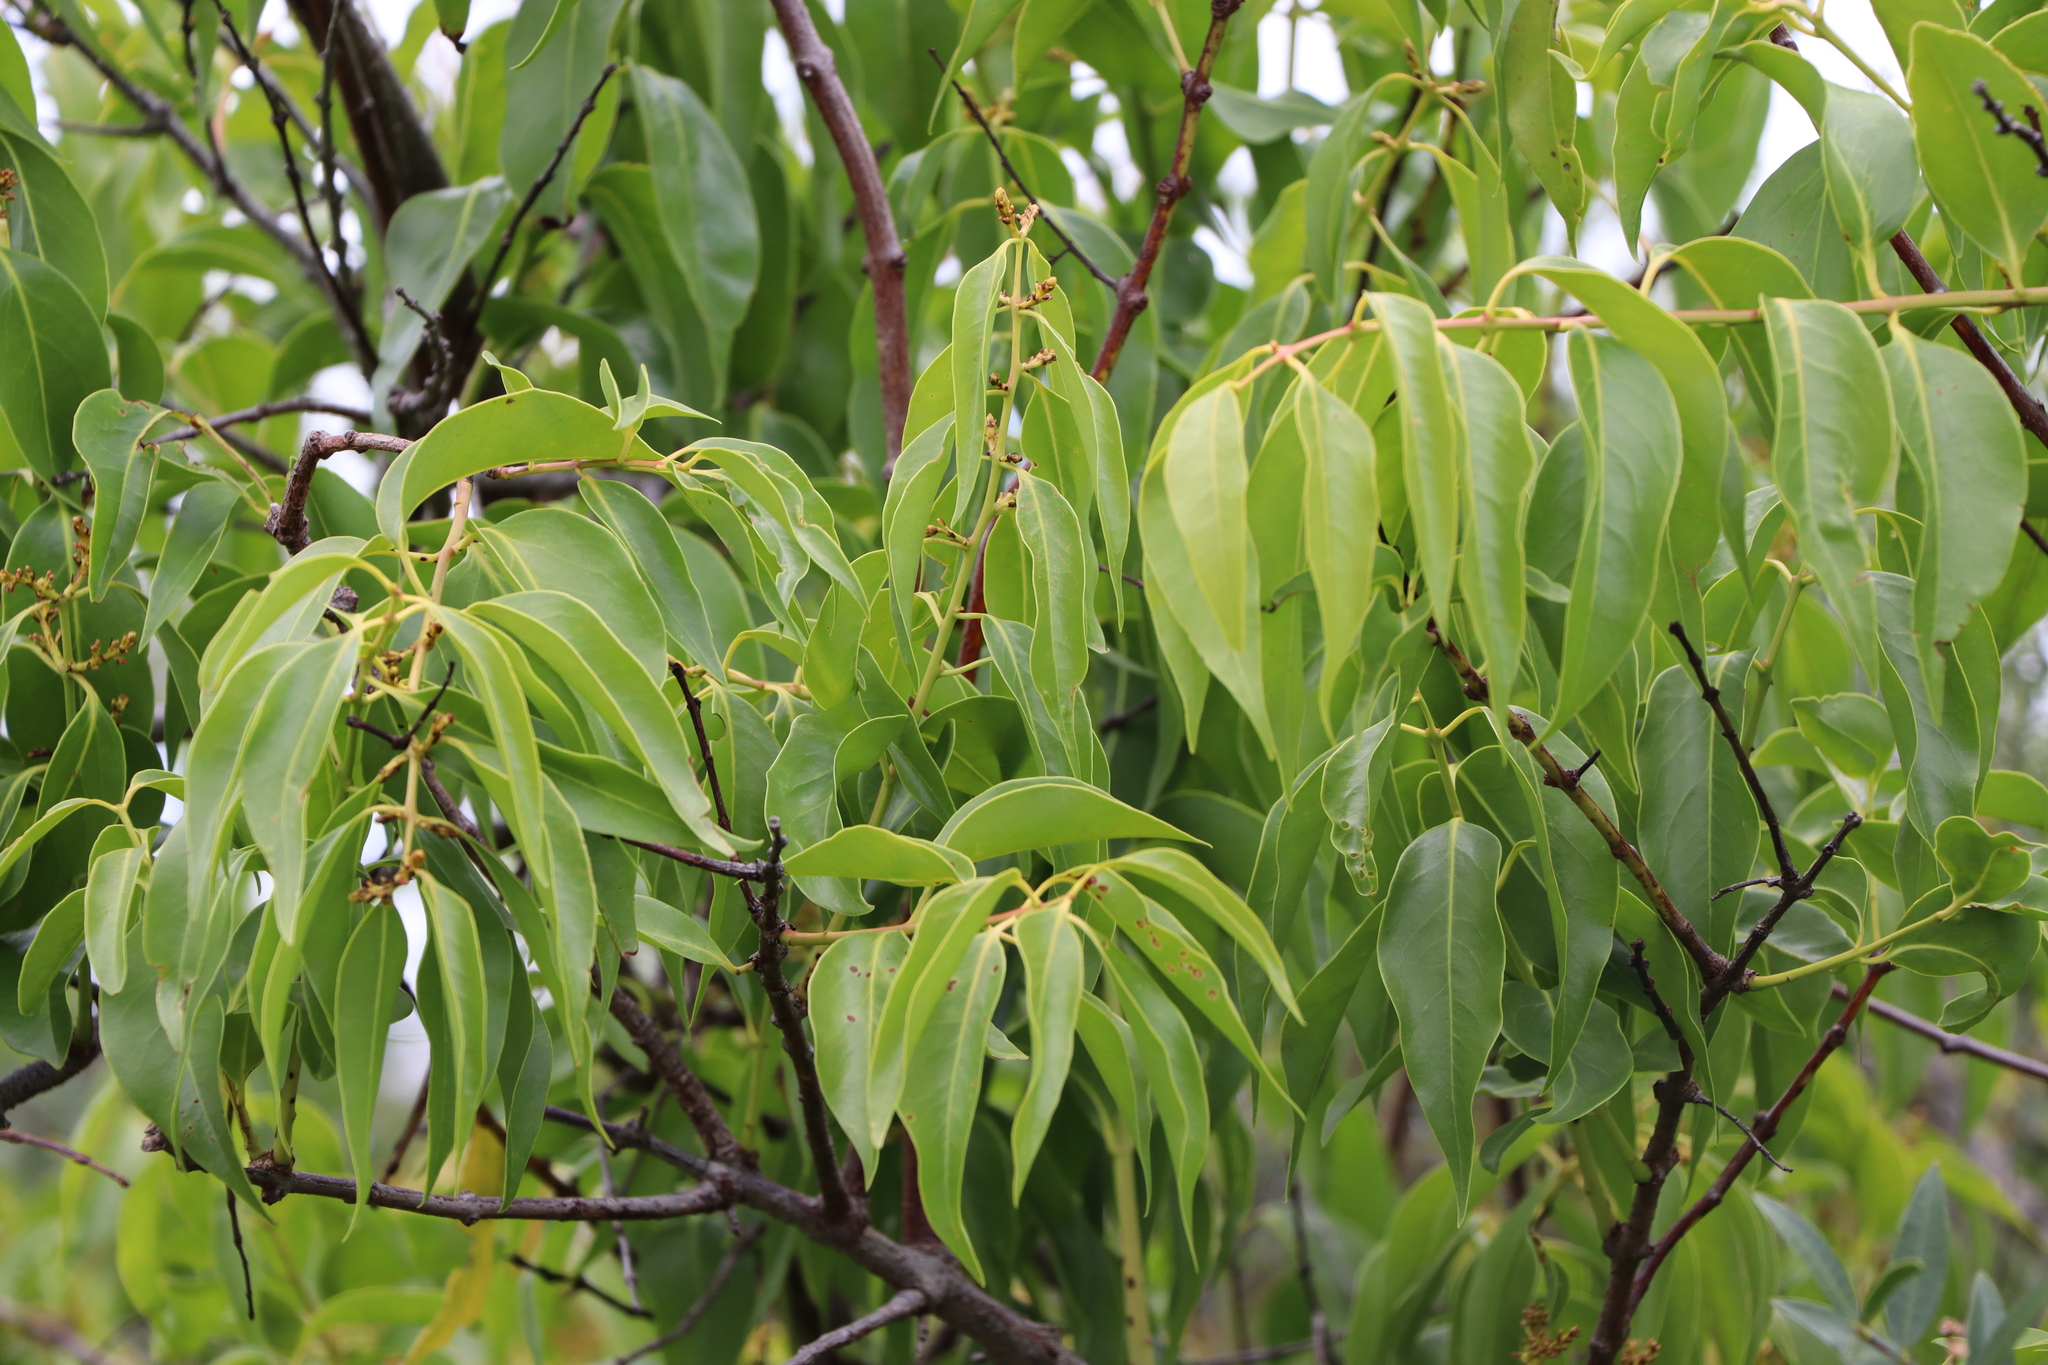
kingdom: Plantae
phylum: Tracheophyta
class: Magnoliopsida
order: Santalales
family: Loranthaceae
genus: Tripodanthus
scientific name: Tripodanthus acutifolius
